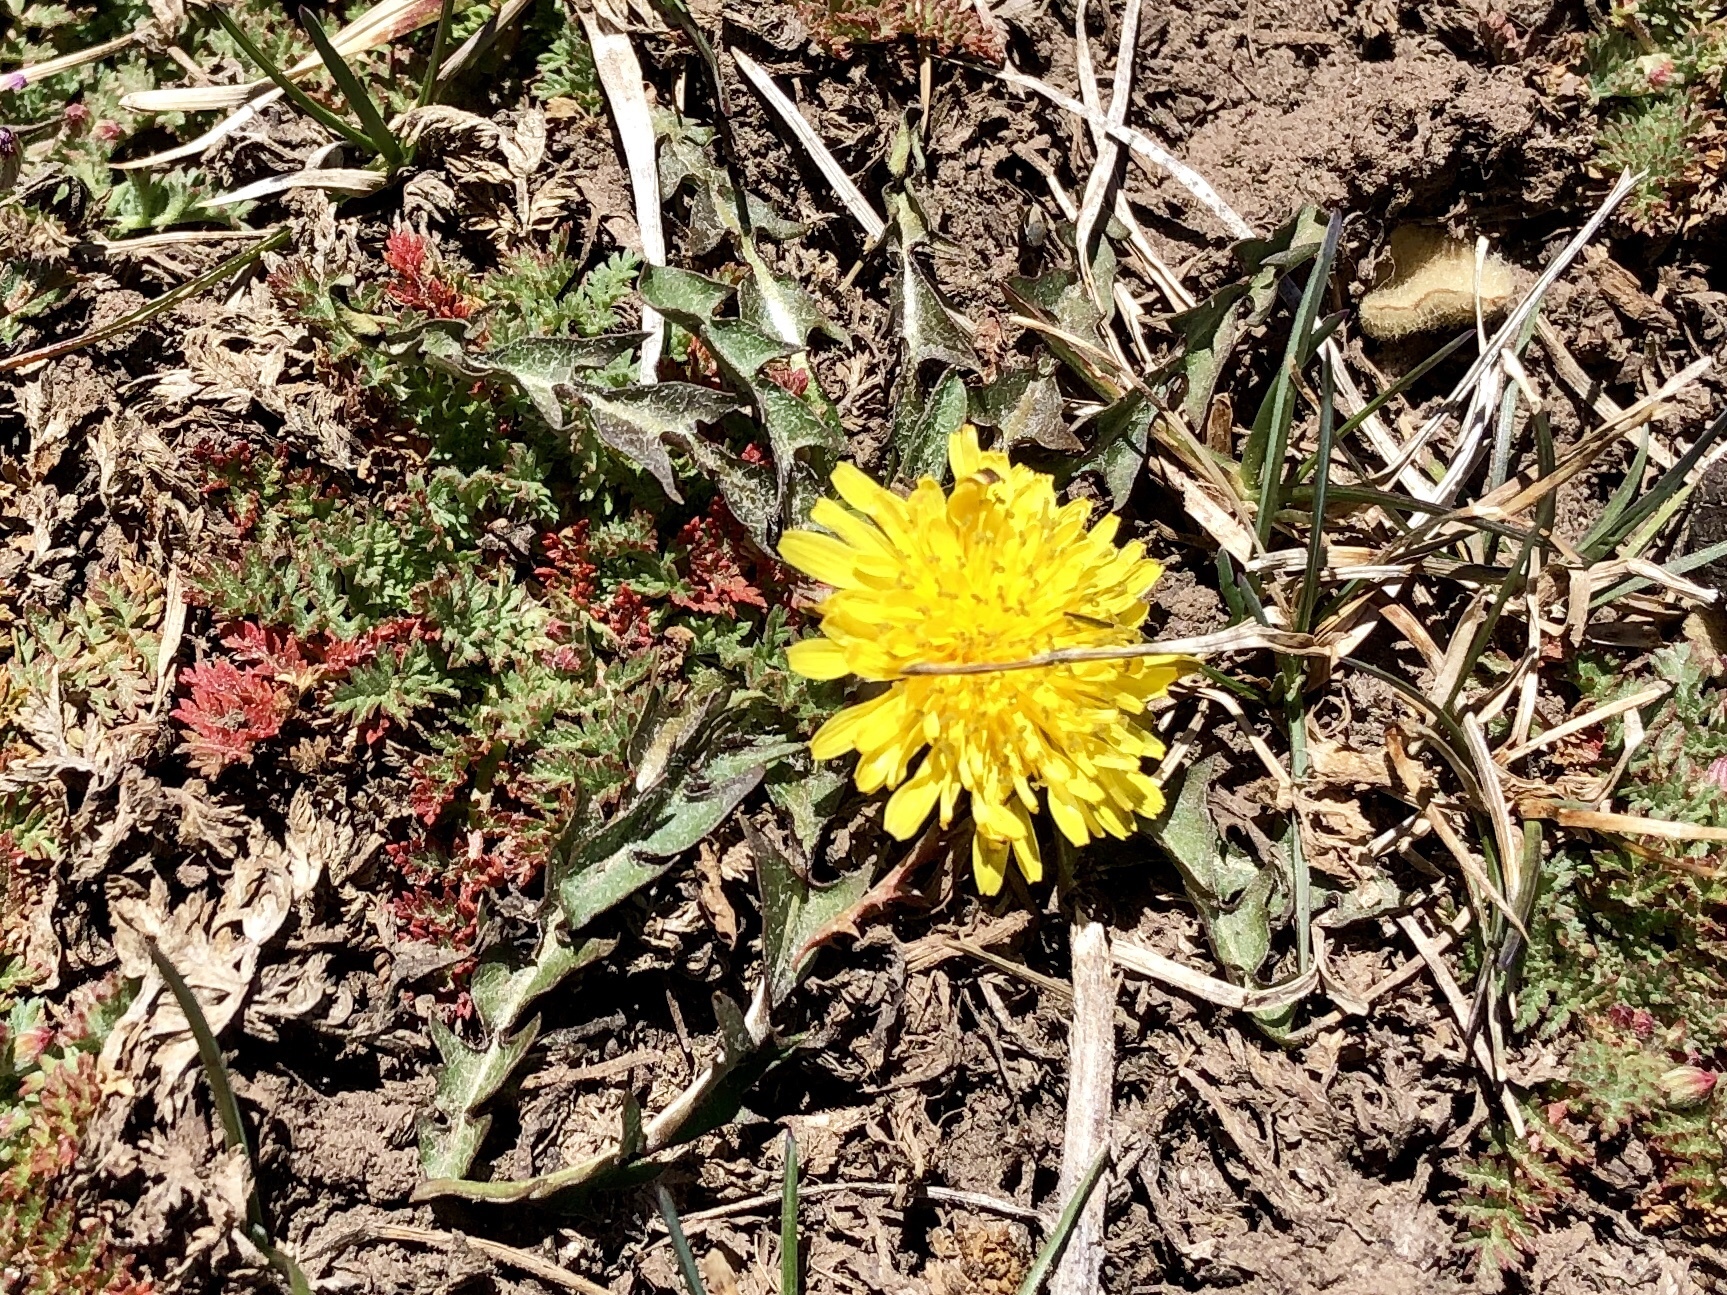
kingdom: Plantae
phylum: Tracheophyta
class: Magnoliopsida
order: Asterales
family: Asteraceae
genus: Taraxacum
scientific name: Taraxacum officinale
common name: Common dandelion
